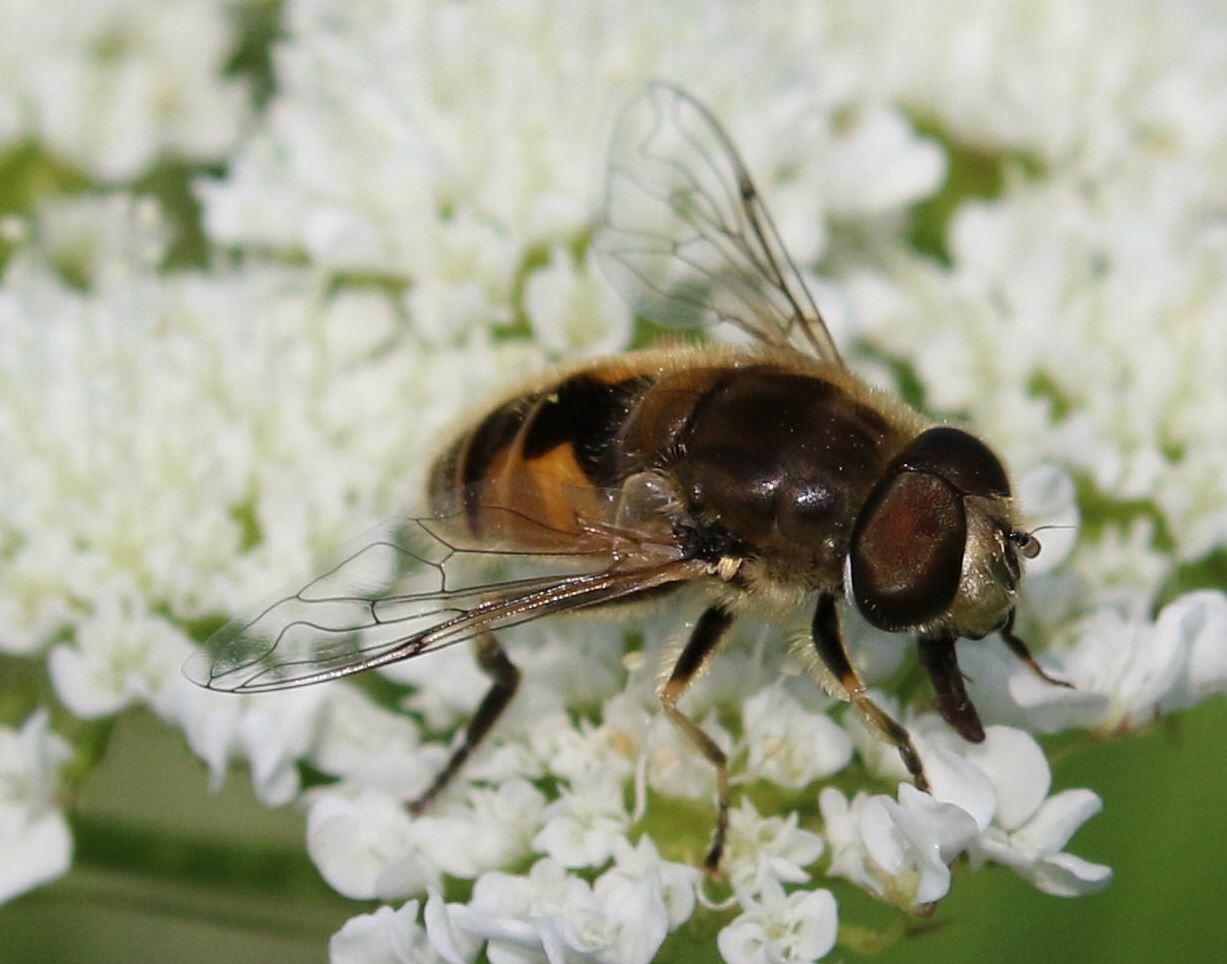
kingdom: Animalia
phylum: Arthropoda
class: Insecta
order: Diptera
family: Syrphidae
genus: Eristalis
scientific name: Eristalis arbustorum
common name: Hover fly
